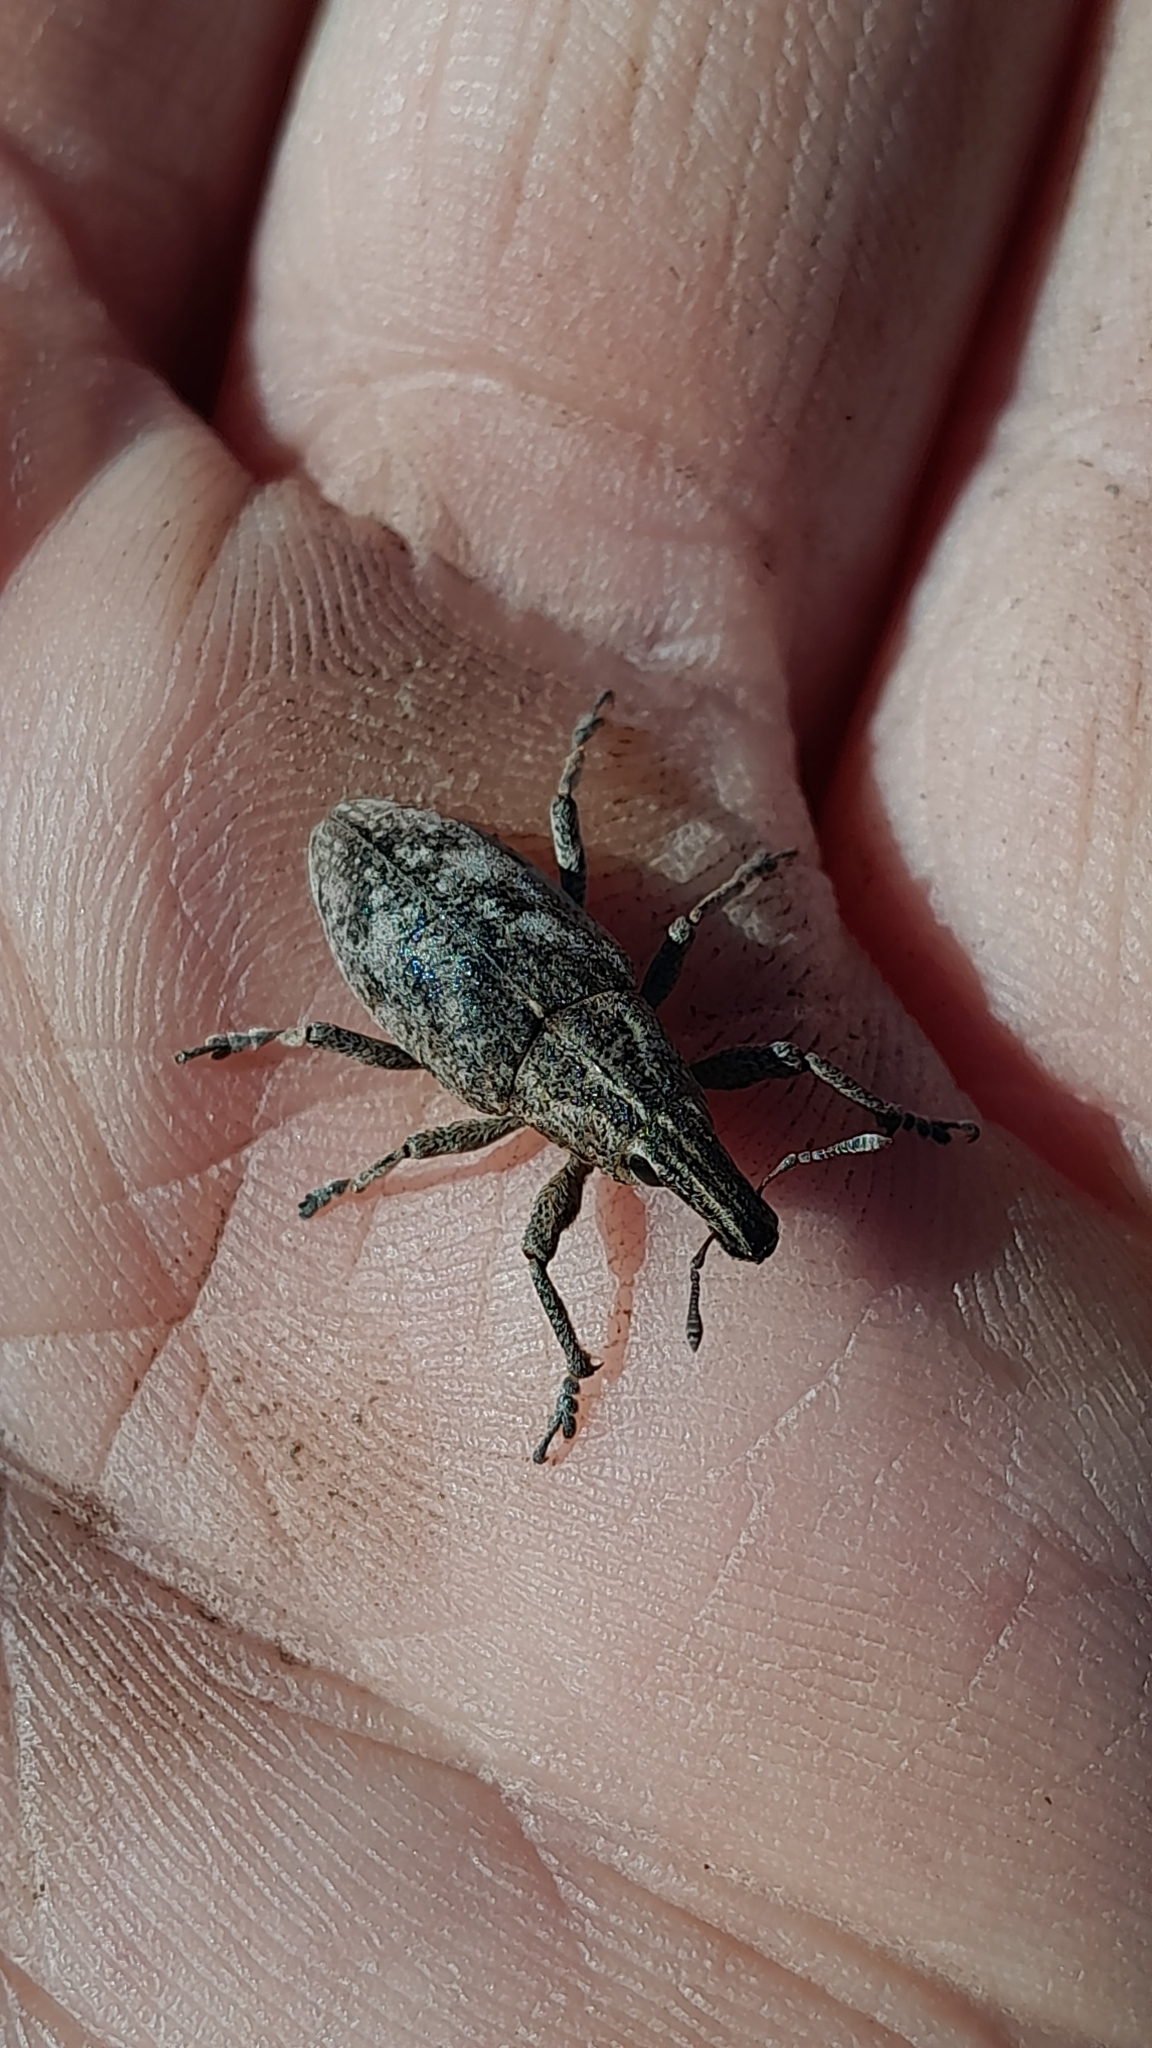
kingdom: Animalia
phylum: Arthropoda
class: Insecta
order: Coleoptera
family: Curculionidae
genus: Cleonis
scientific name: Cleonis pigra
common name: Large thistle weevil
